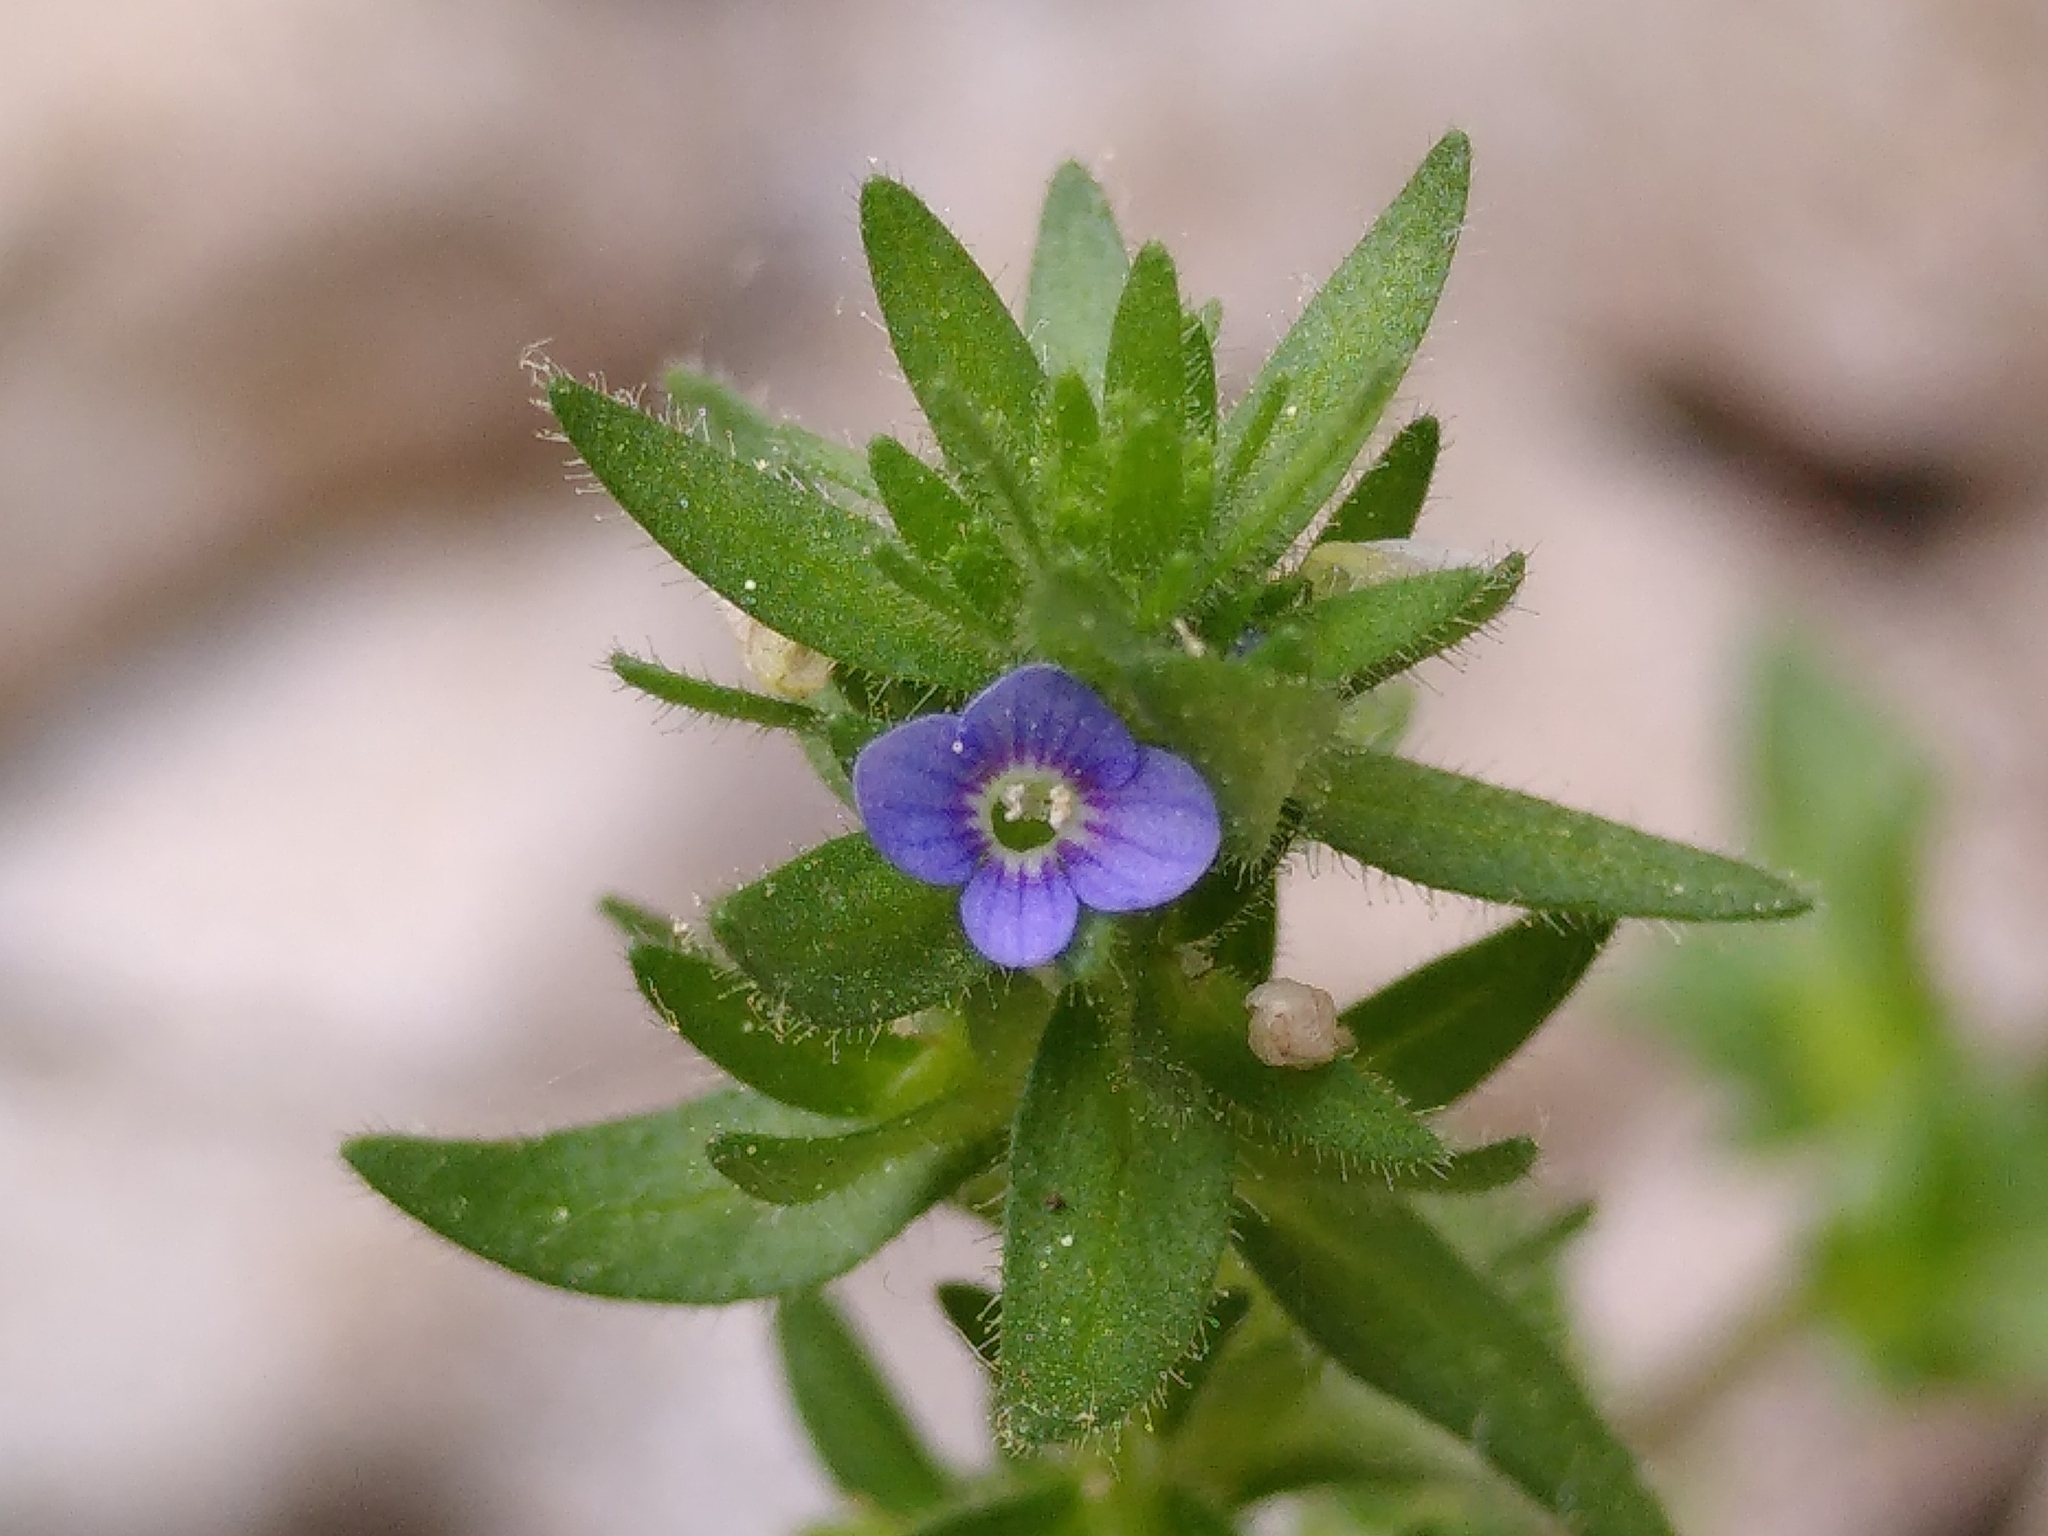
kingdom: Plantae
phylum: Tracheophyta
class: Magnoliopsida
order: Lamiales
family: Plantaginaceae
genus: Veronica
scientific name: Veronica arvensis
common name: Corn speedwell
